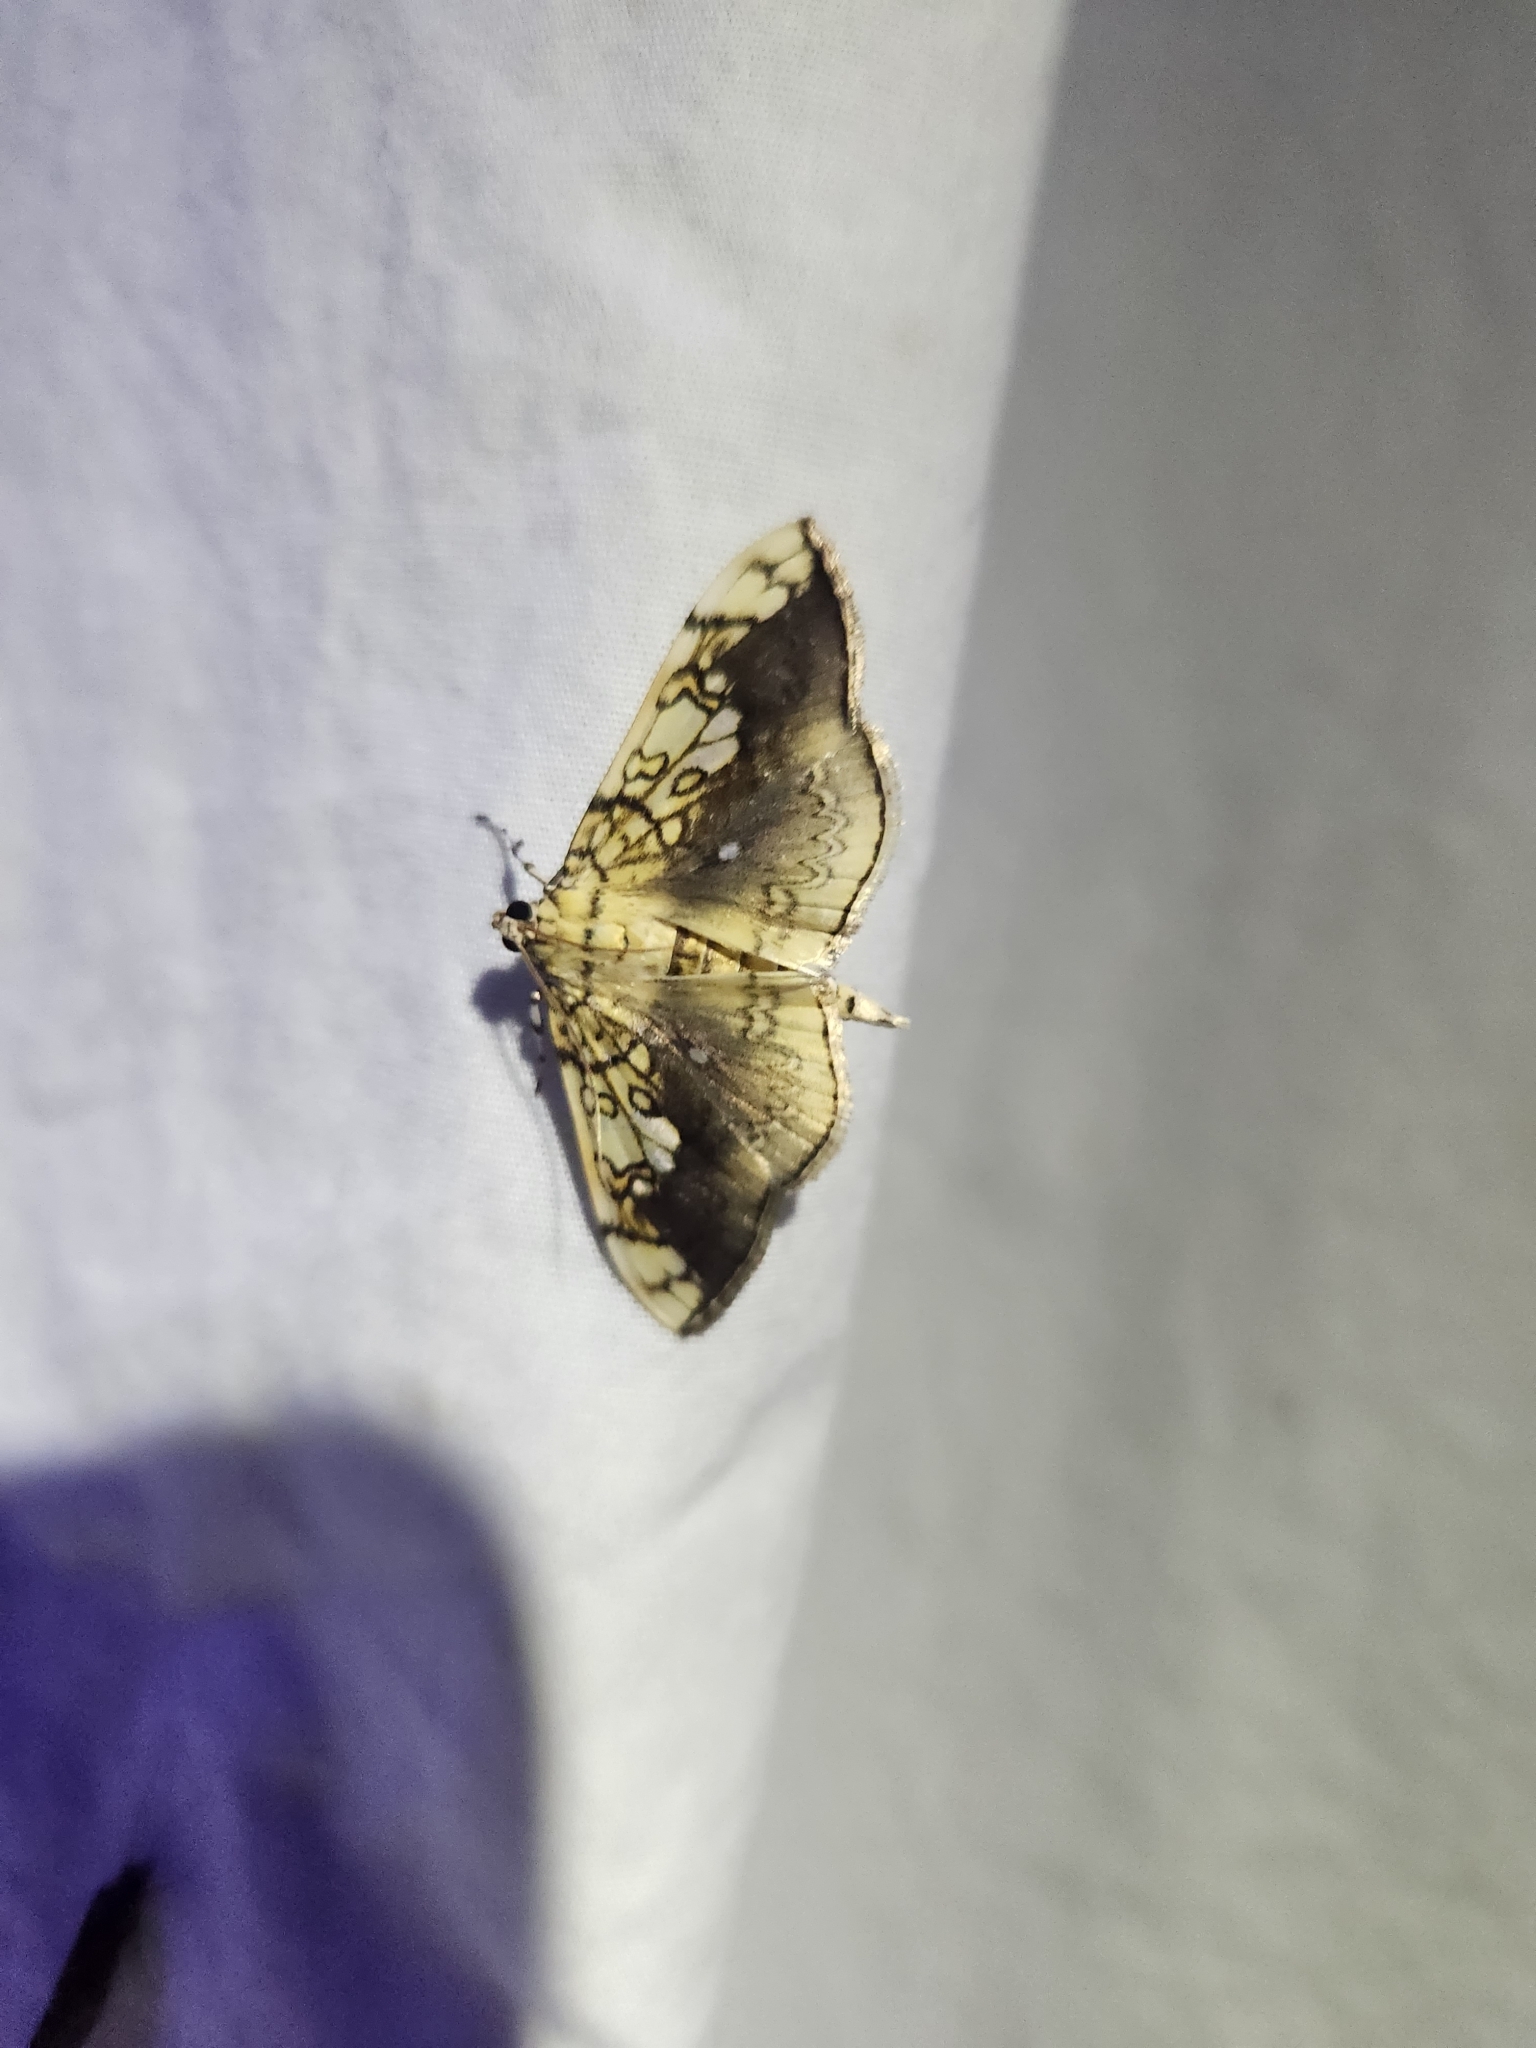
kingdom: Animalia
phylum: Arthropoda
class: Insecta
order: Lepidoptera
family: Crambidae
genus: Pantographa
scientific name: Pantographa limata
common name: Basswood leafroller moth
